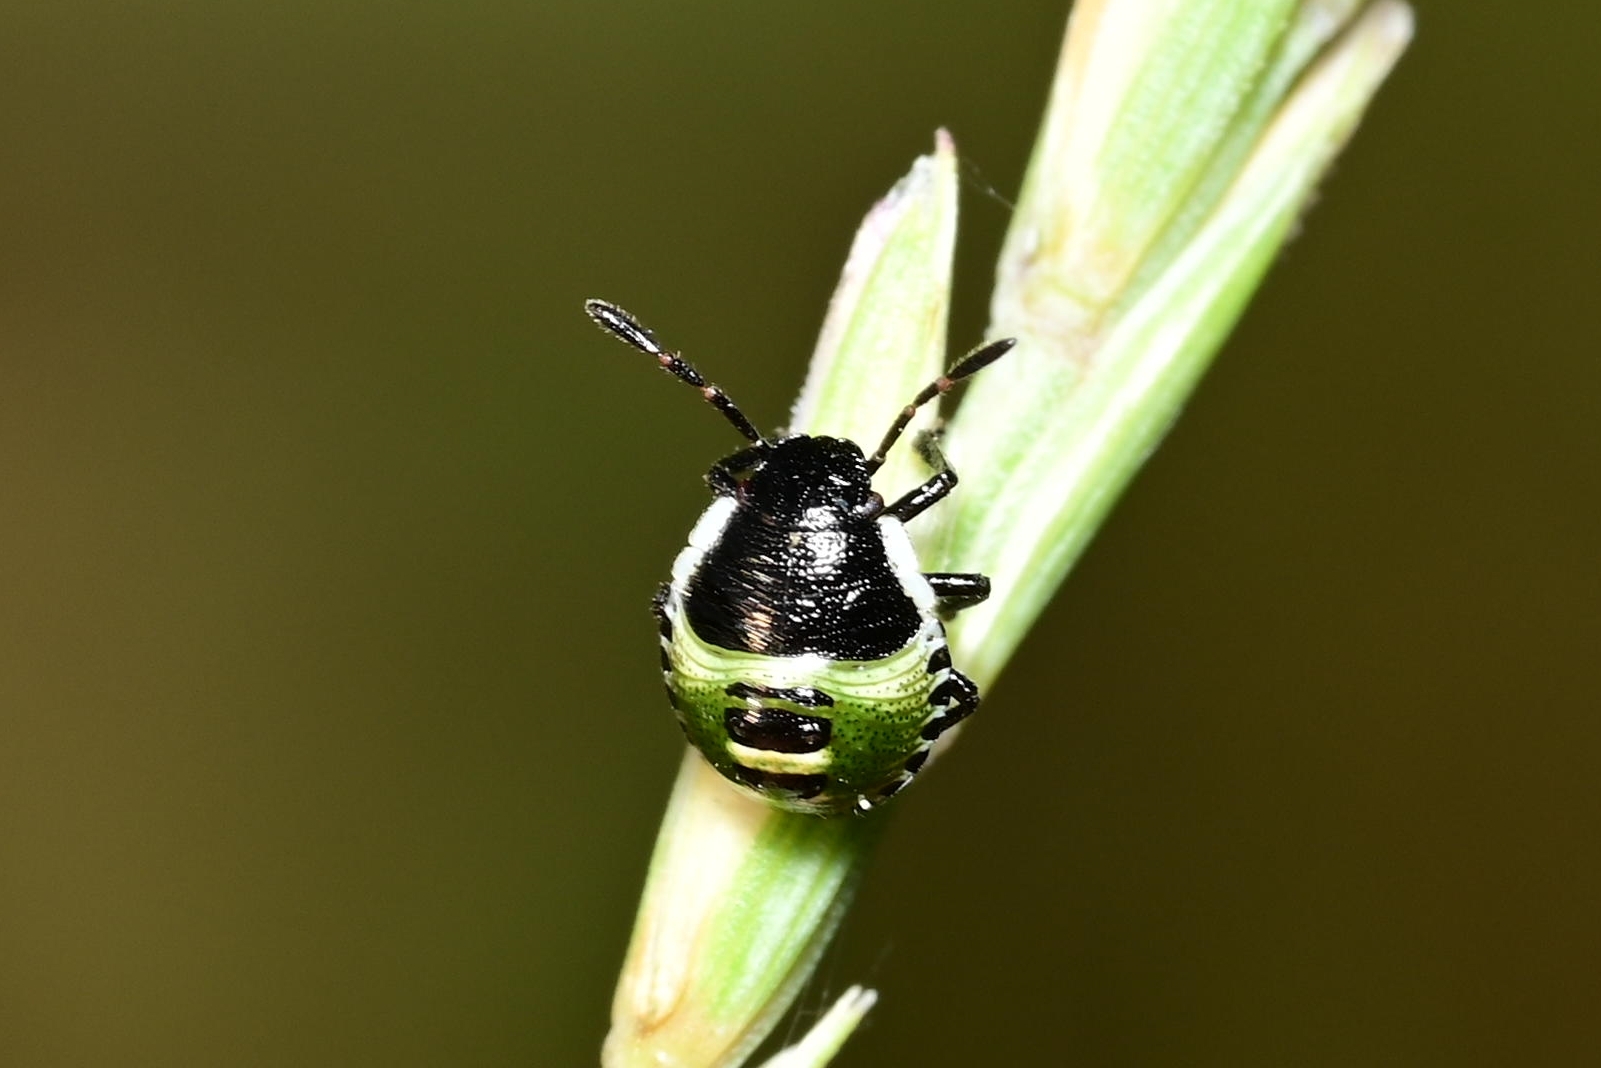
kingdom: Animalia
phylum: Arthropoda
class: Insecta
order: Hemiptera
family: Pentatomidae
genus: Palomena
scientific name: Palomena prasina
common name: Green shieldbug
